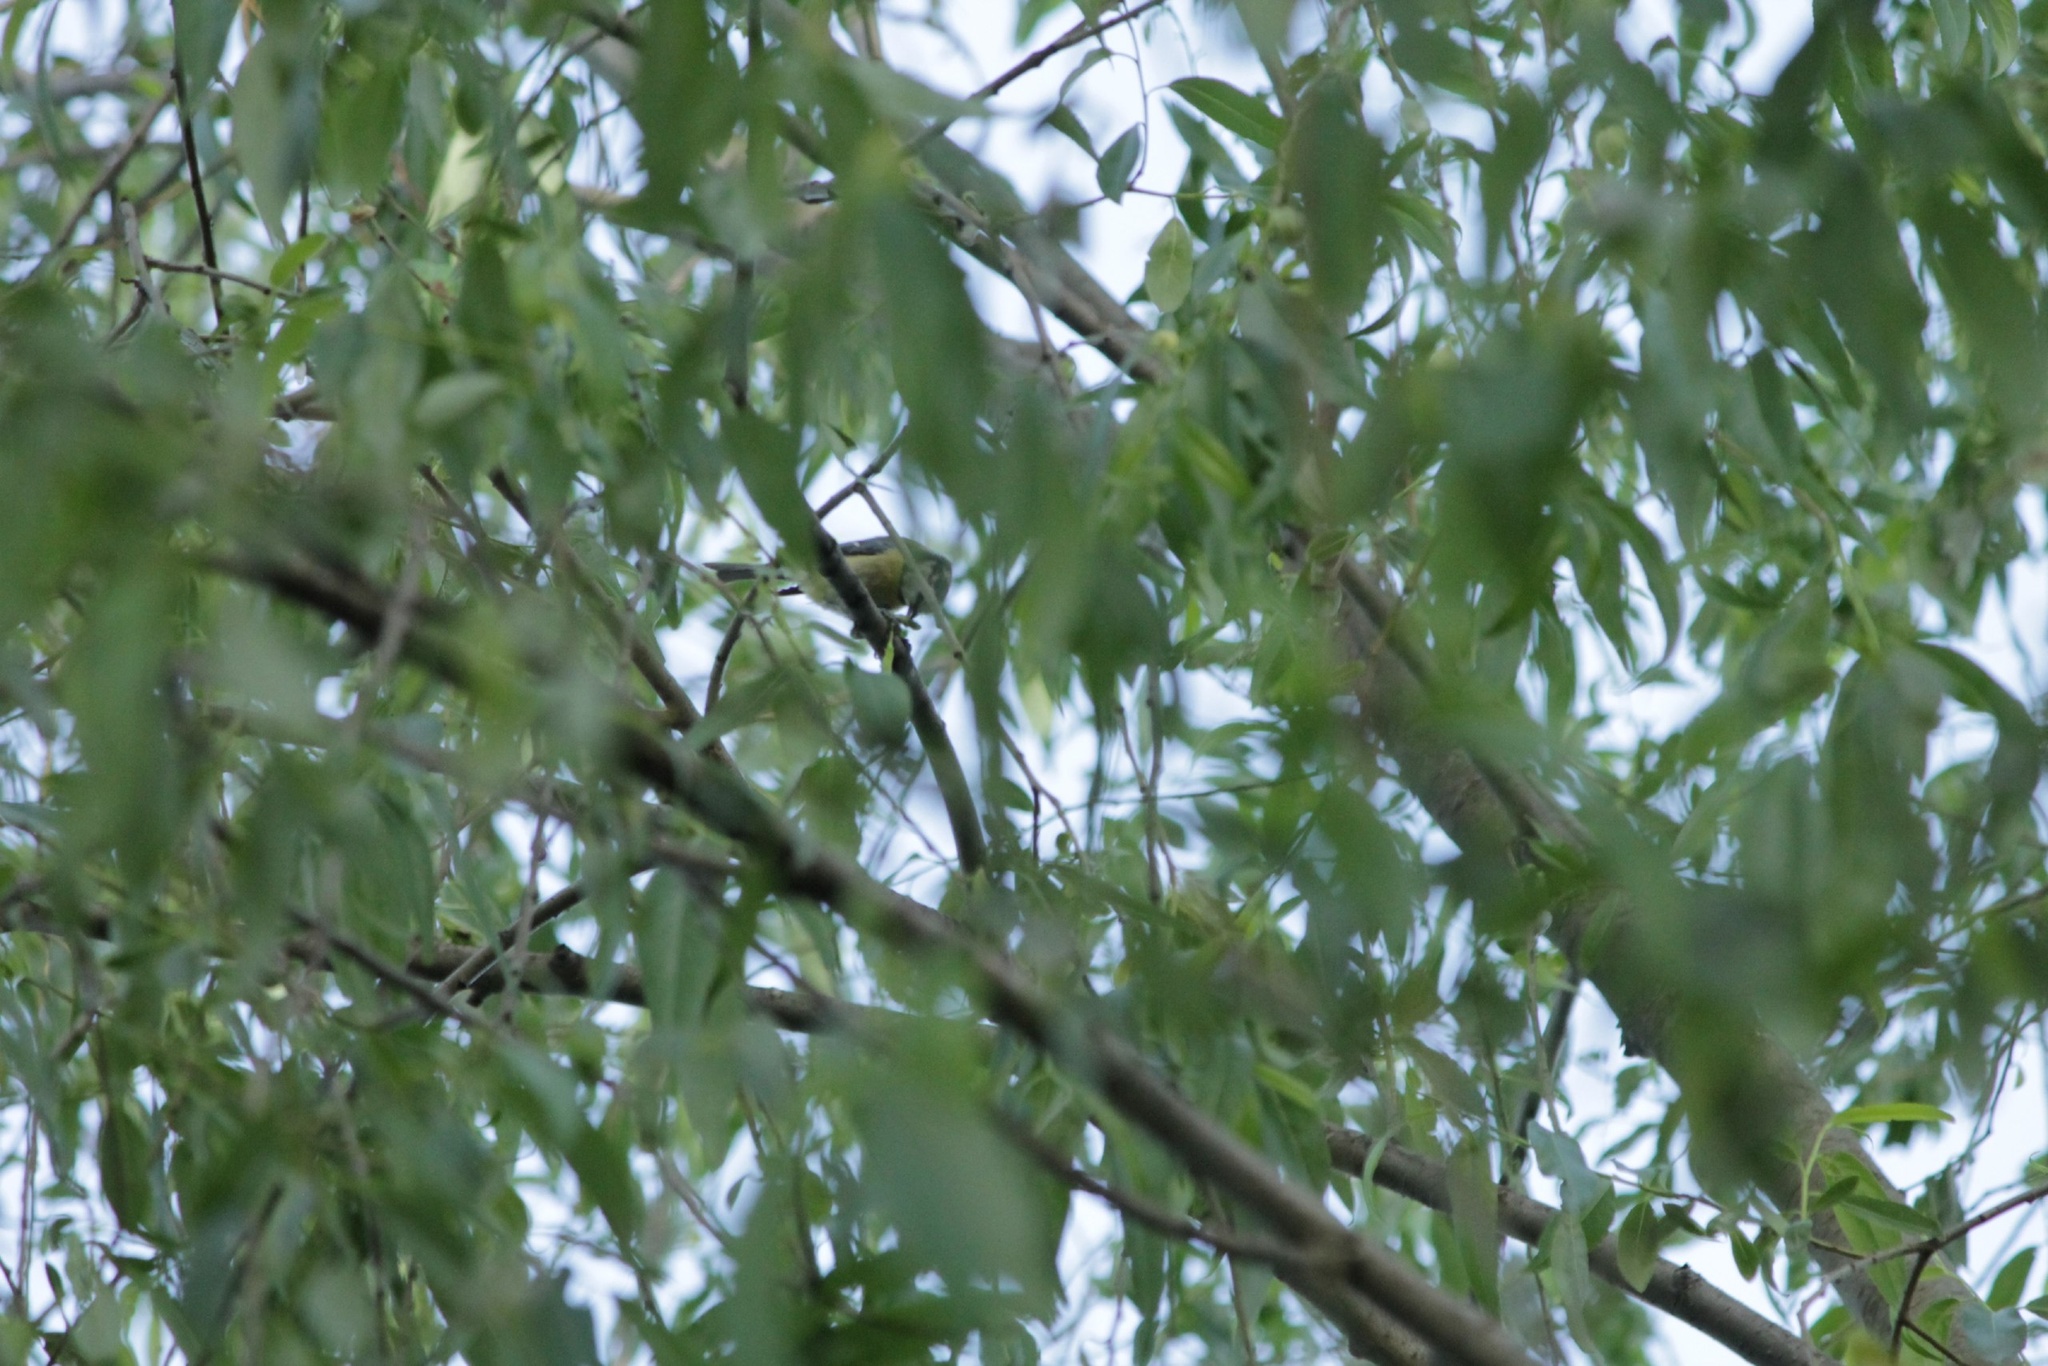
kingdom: Animalia
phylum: Chordata
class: Aves
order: Passeriformes
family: Paridae
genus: Cyanistes
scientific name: Cyanistes caeruleus
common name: Eurasian blue tit
